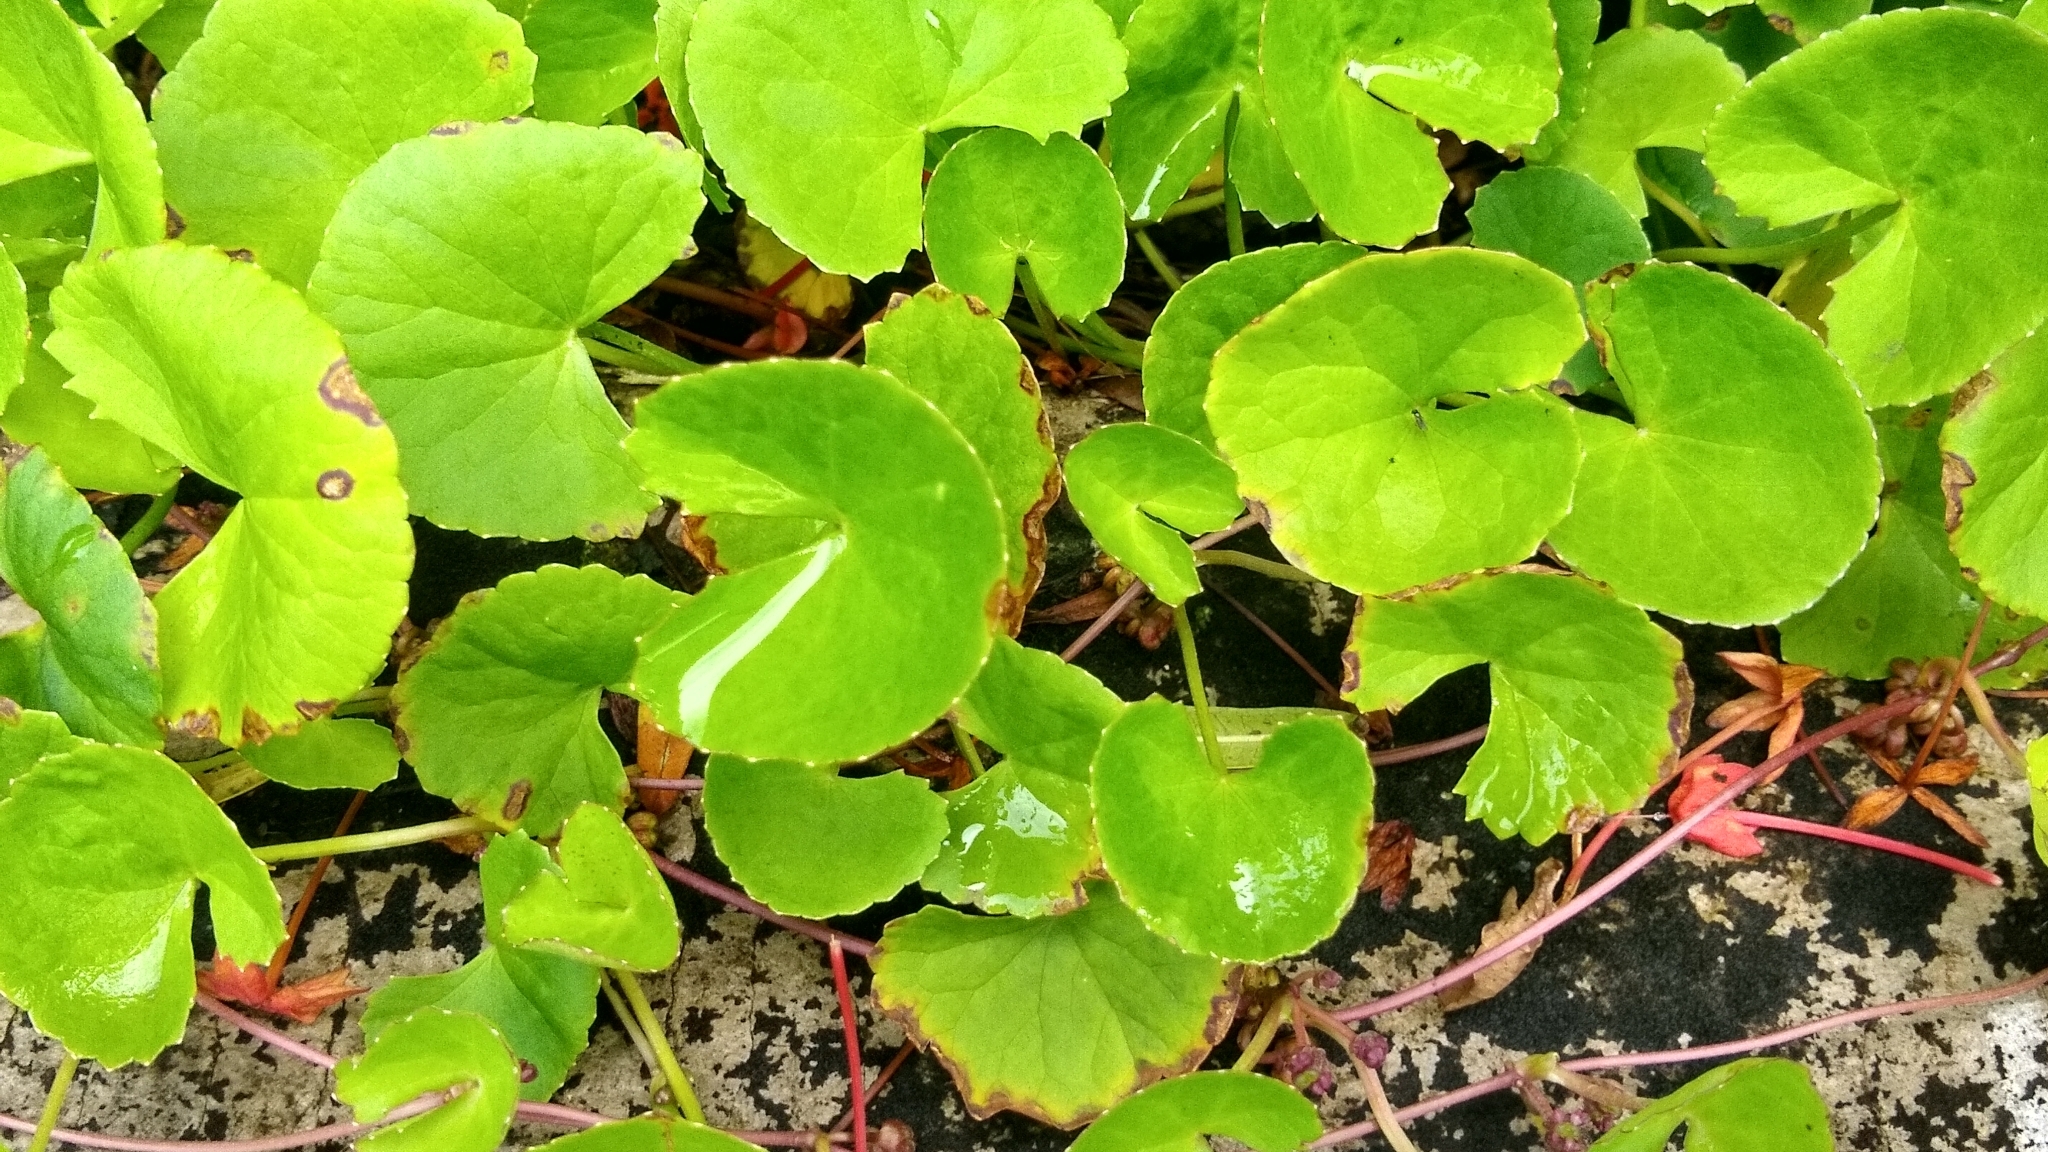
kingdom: Plantae
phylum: Tracheophyta
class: Magnoliopsida
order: Apiales
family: Apiaceae
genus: Centella
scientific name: Centella asiatica
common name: Spadeleaf
